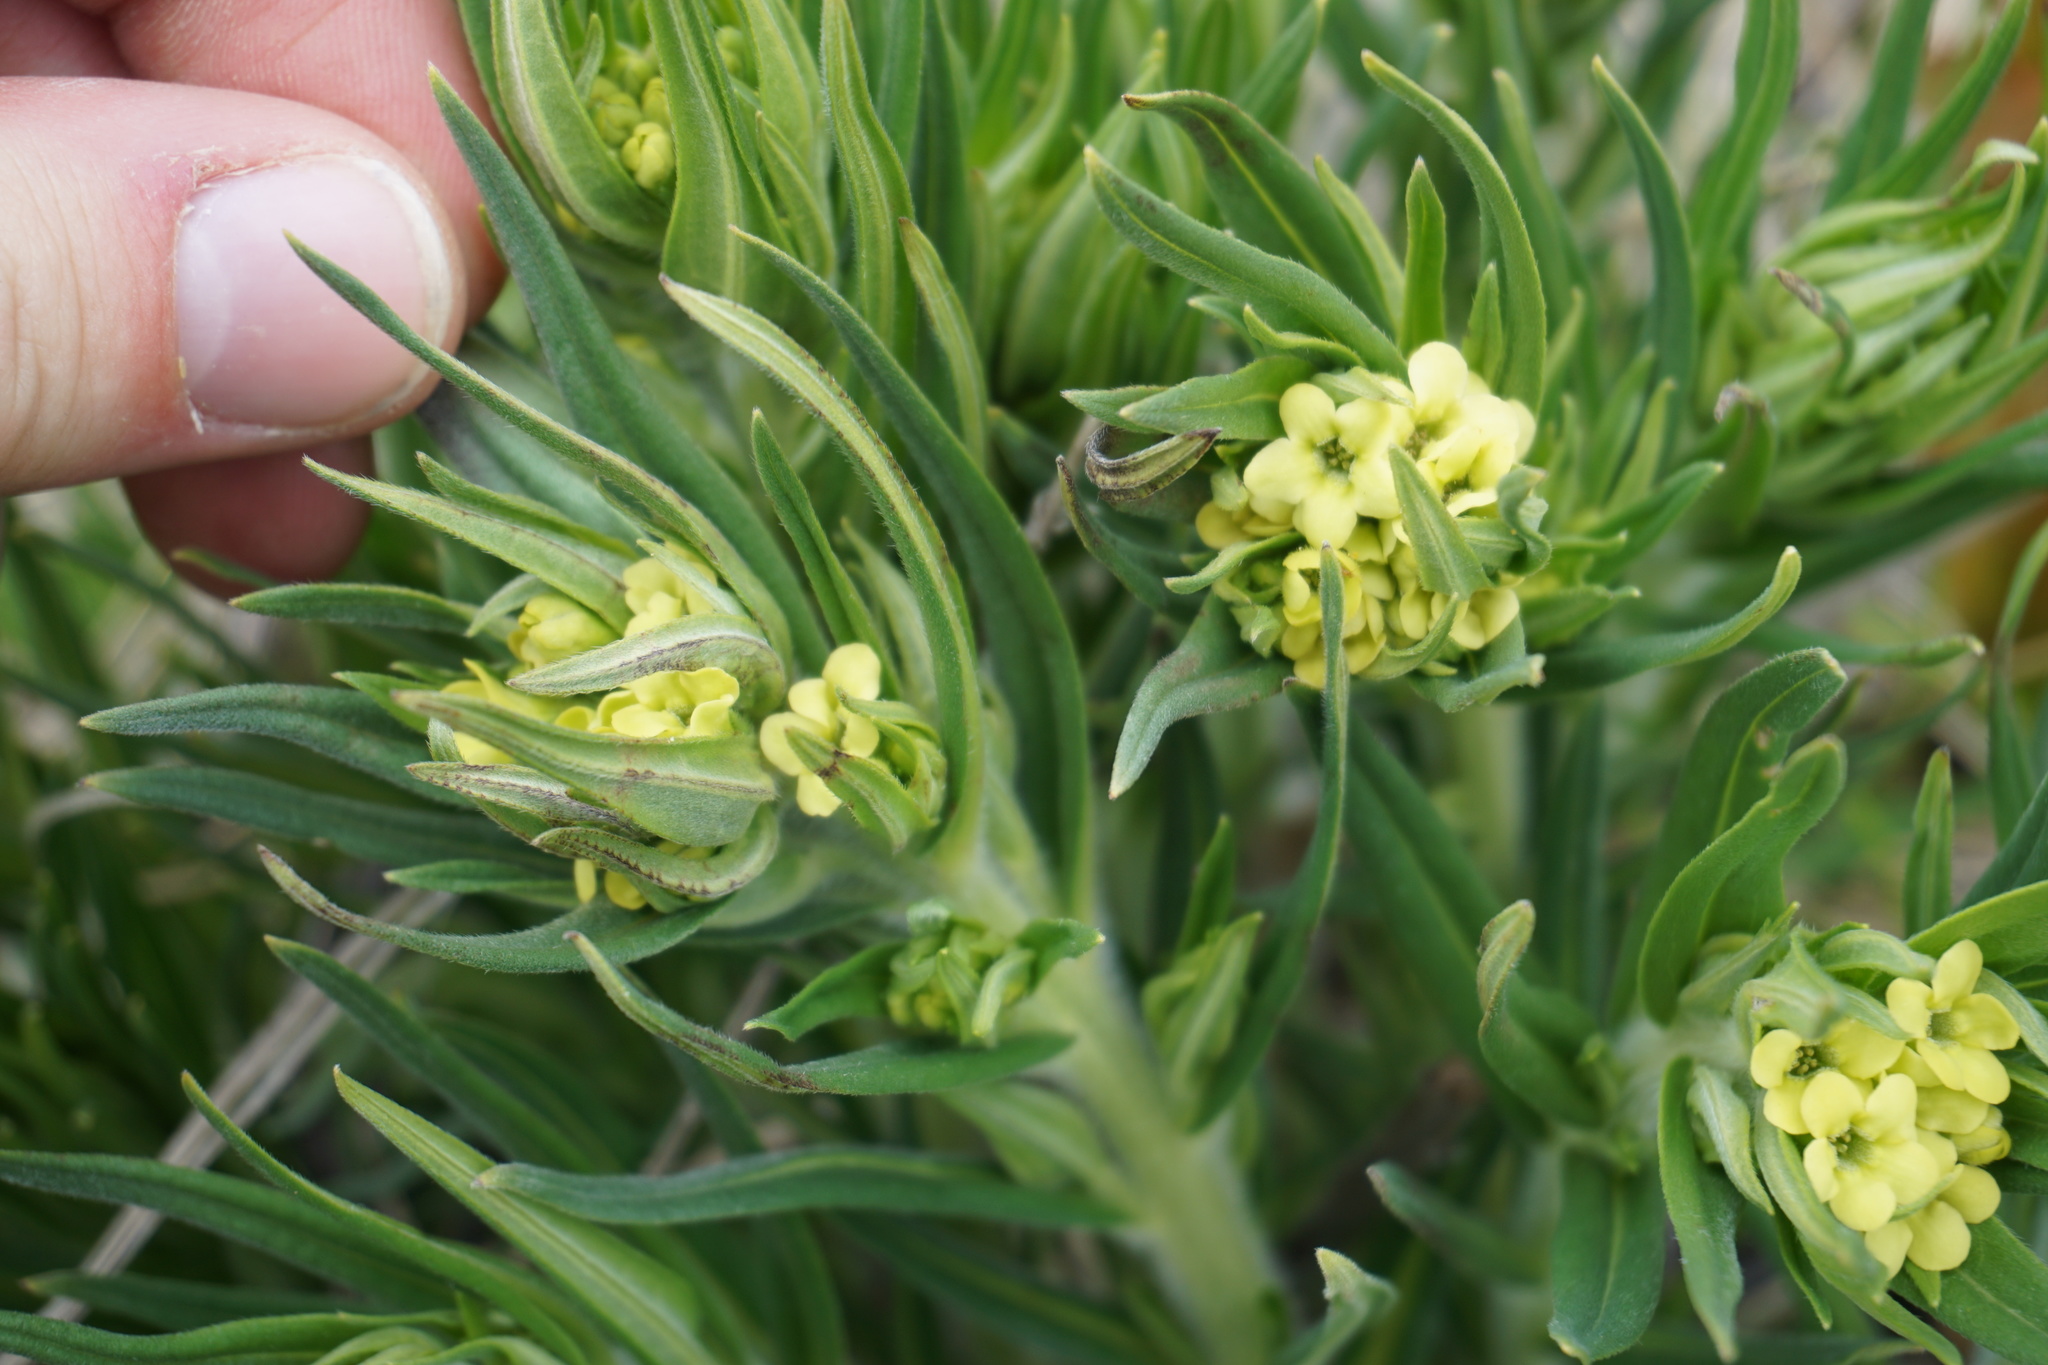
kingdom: Plantae
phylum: Tracheophyta
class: Magnoliopsida
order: Boraginales
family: Boraginaceae
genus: Lithospermum
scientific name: Lithospermum ruderale
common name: Western gromwell
